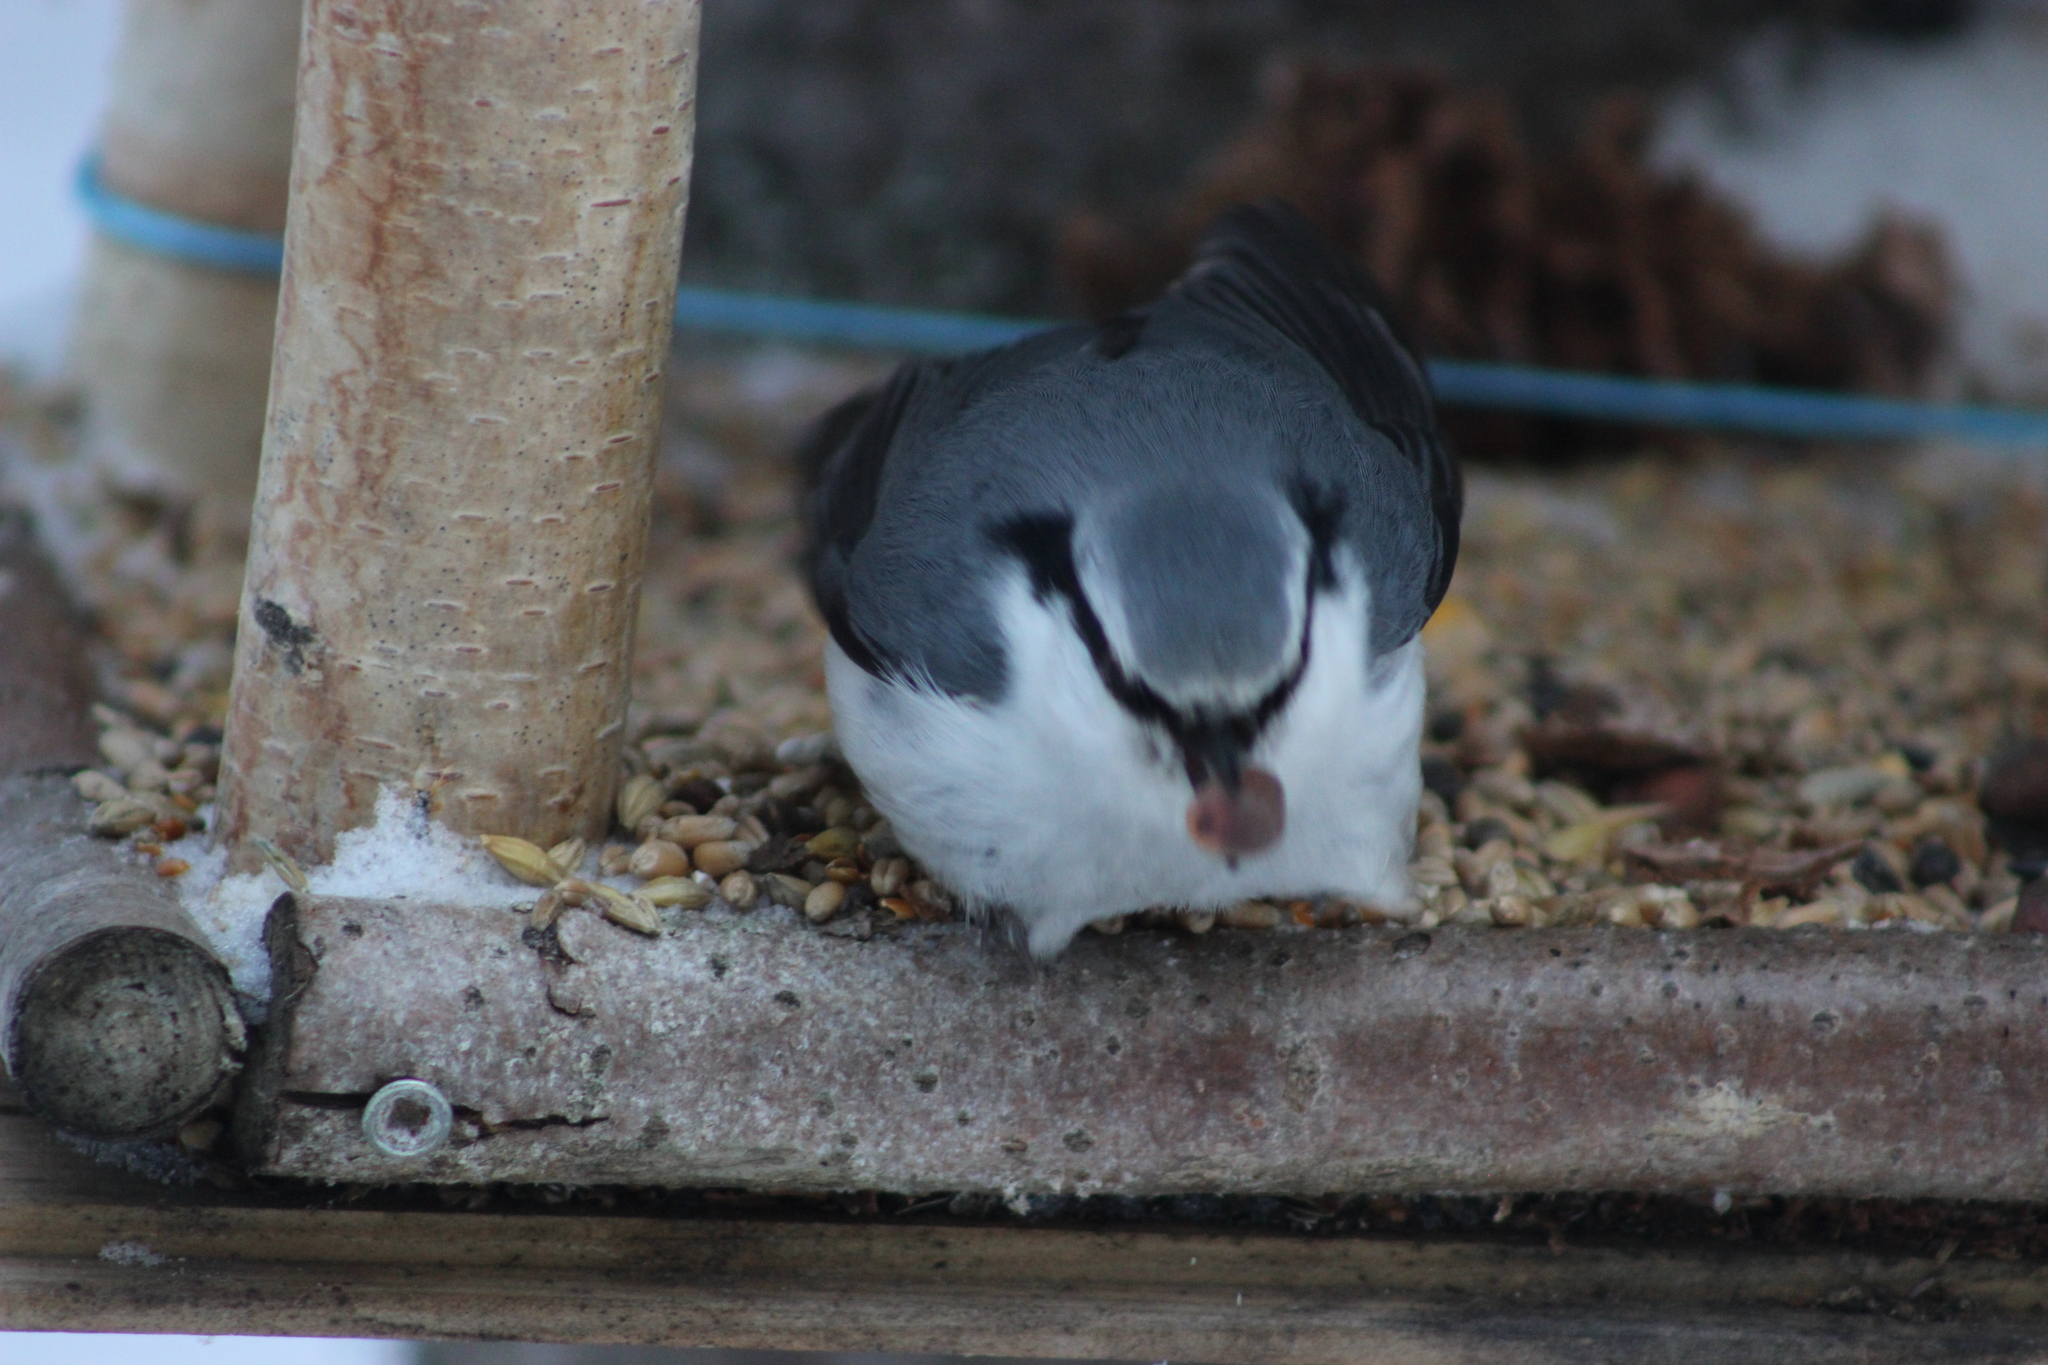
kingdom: Animalia
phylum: Chordata
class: Aves
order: Passeriformes
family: Sittidae
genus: Sitta
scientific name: Sitta europaea
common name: Eurasian nuthatch
